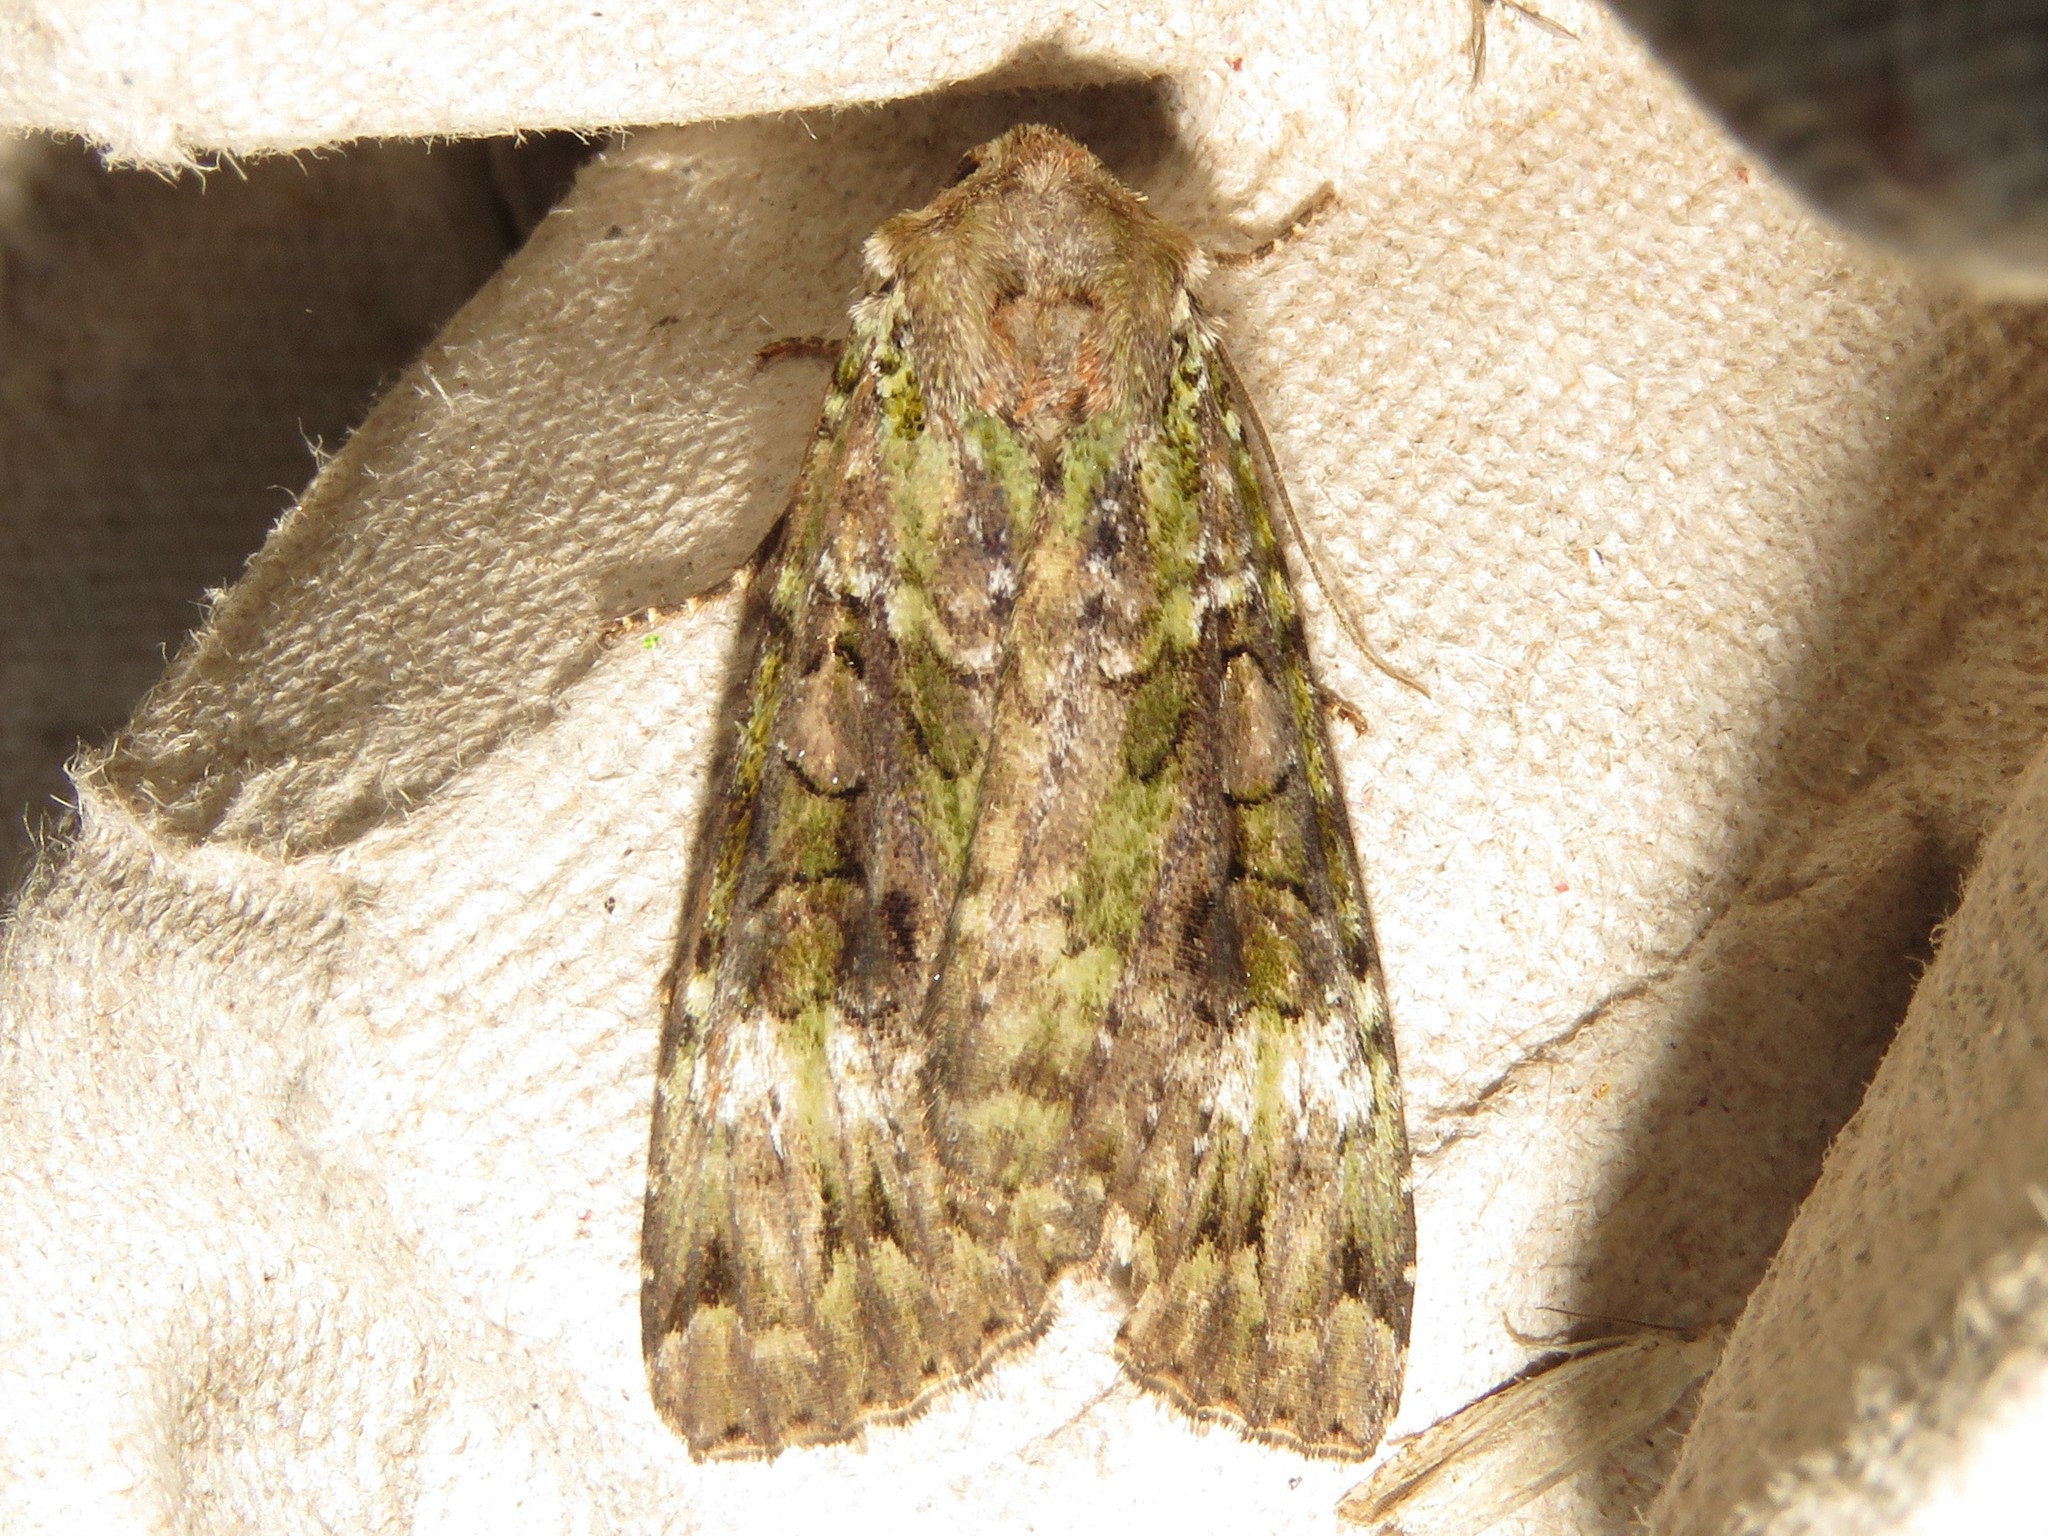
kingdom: Animalia
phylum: Arthropoda
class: Insecta
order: Lepidoptera
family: Noctuidae
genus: Anaplectoides
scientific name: Anaplectoides prasina
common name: Green arches
